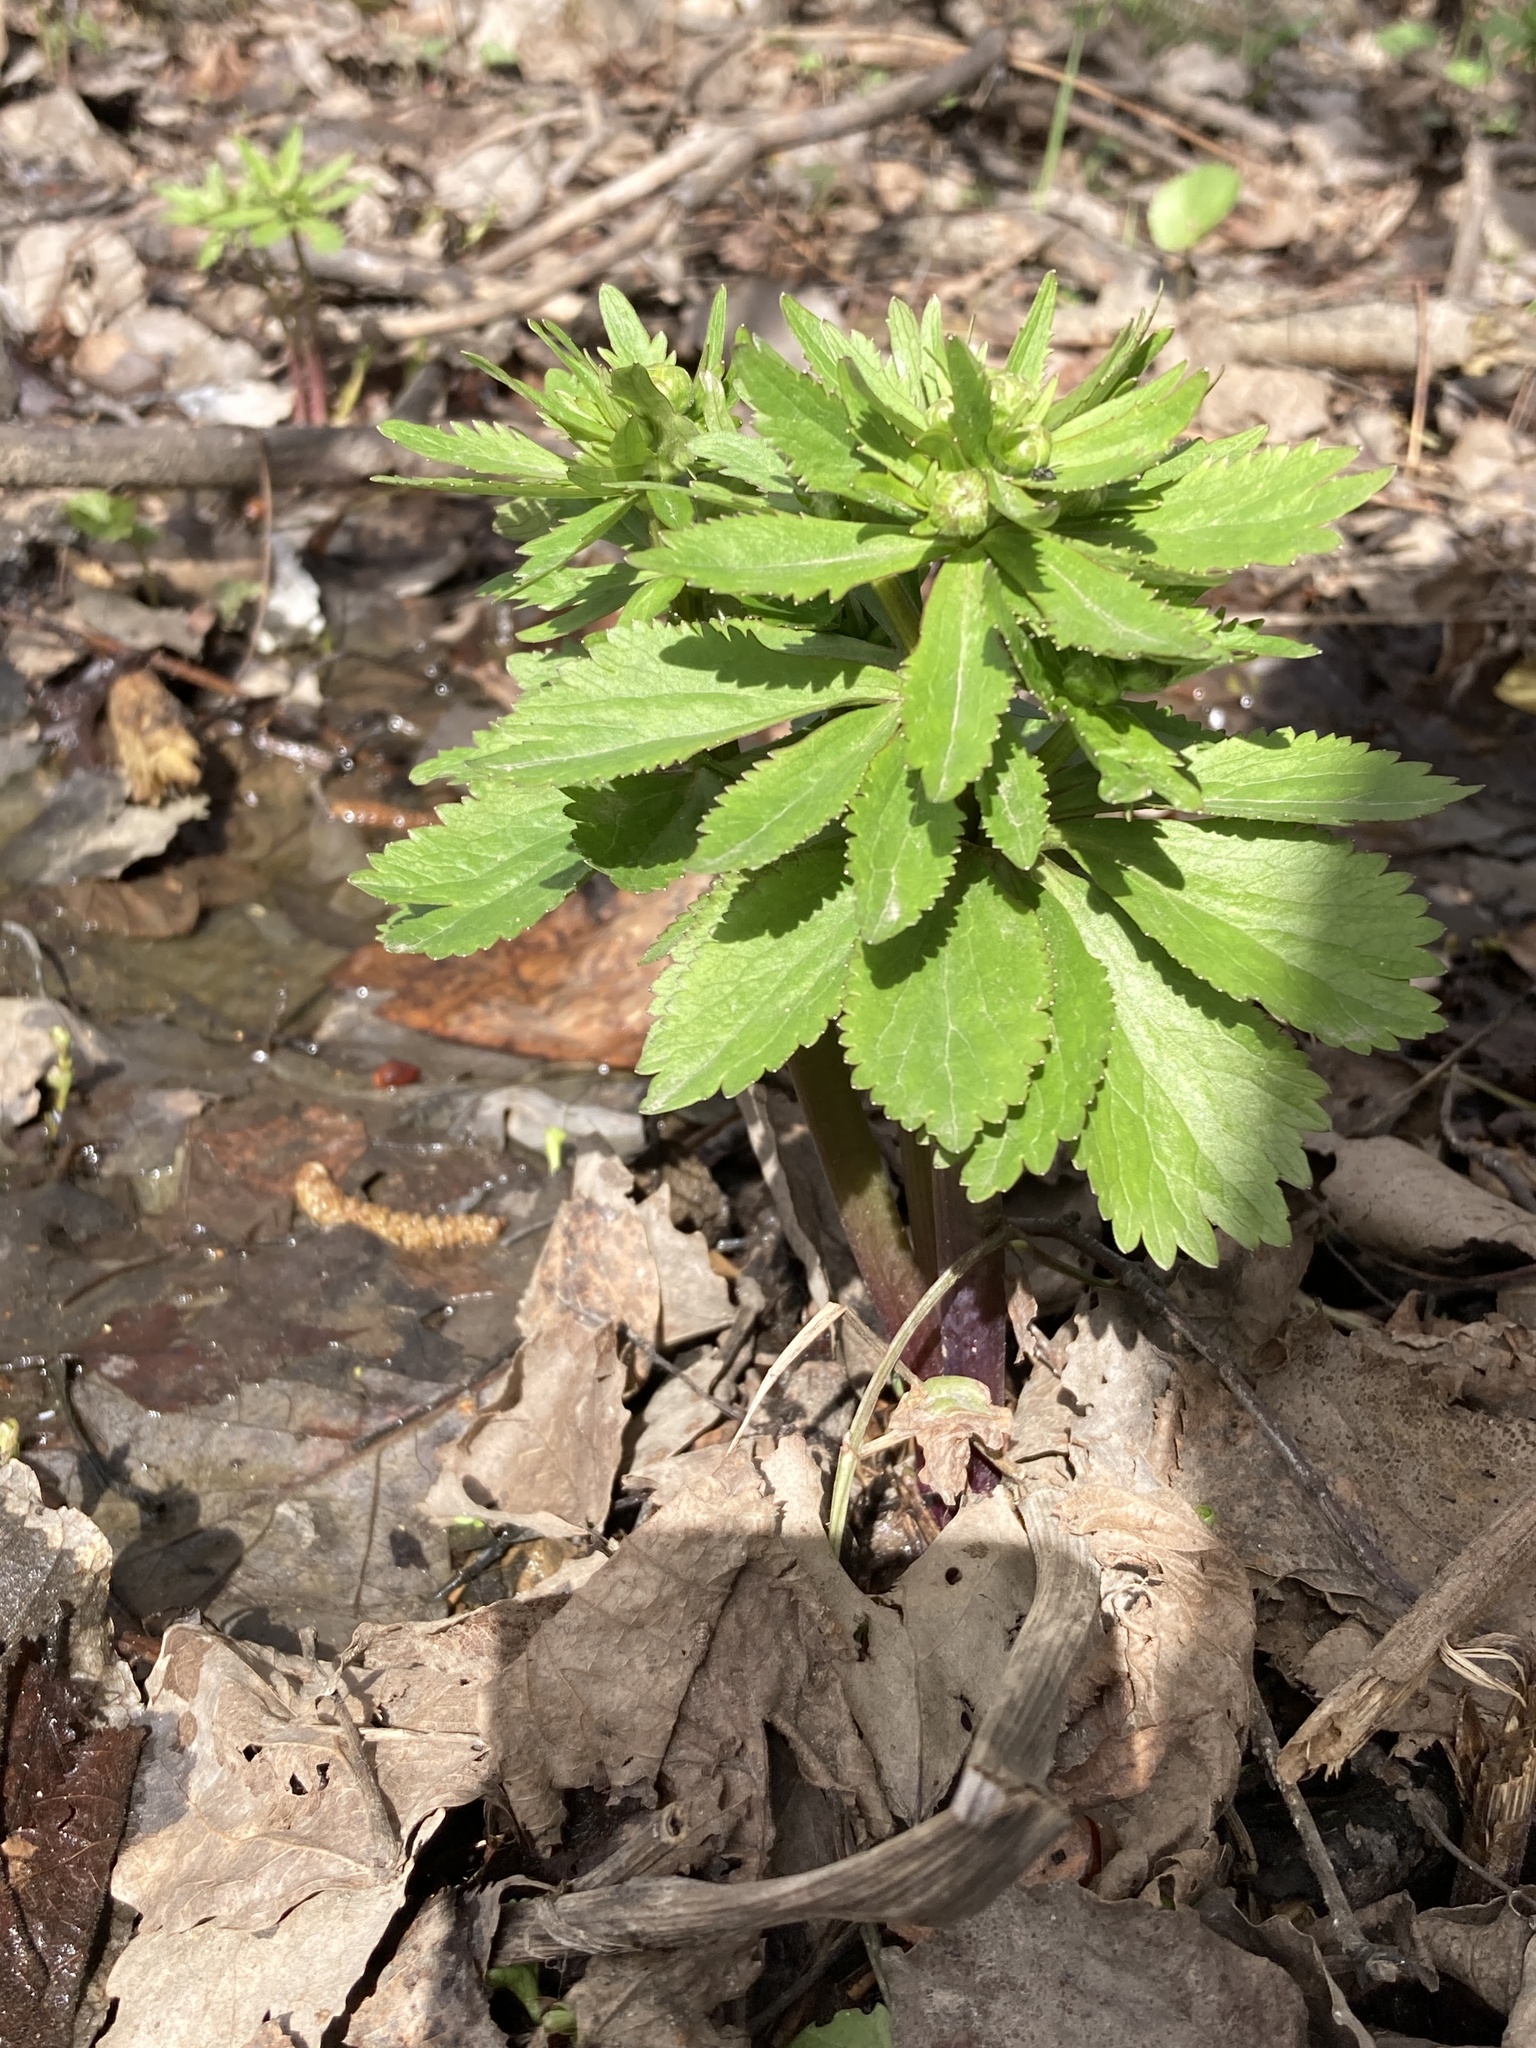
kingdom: Plantae
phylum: Tracheophyta
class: Magnoliopsida
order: Ranunculales
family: Ranunculaceae
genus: Ranunculus
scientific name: Ranunculus cassubicus
